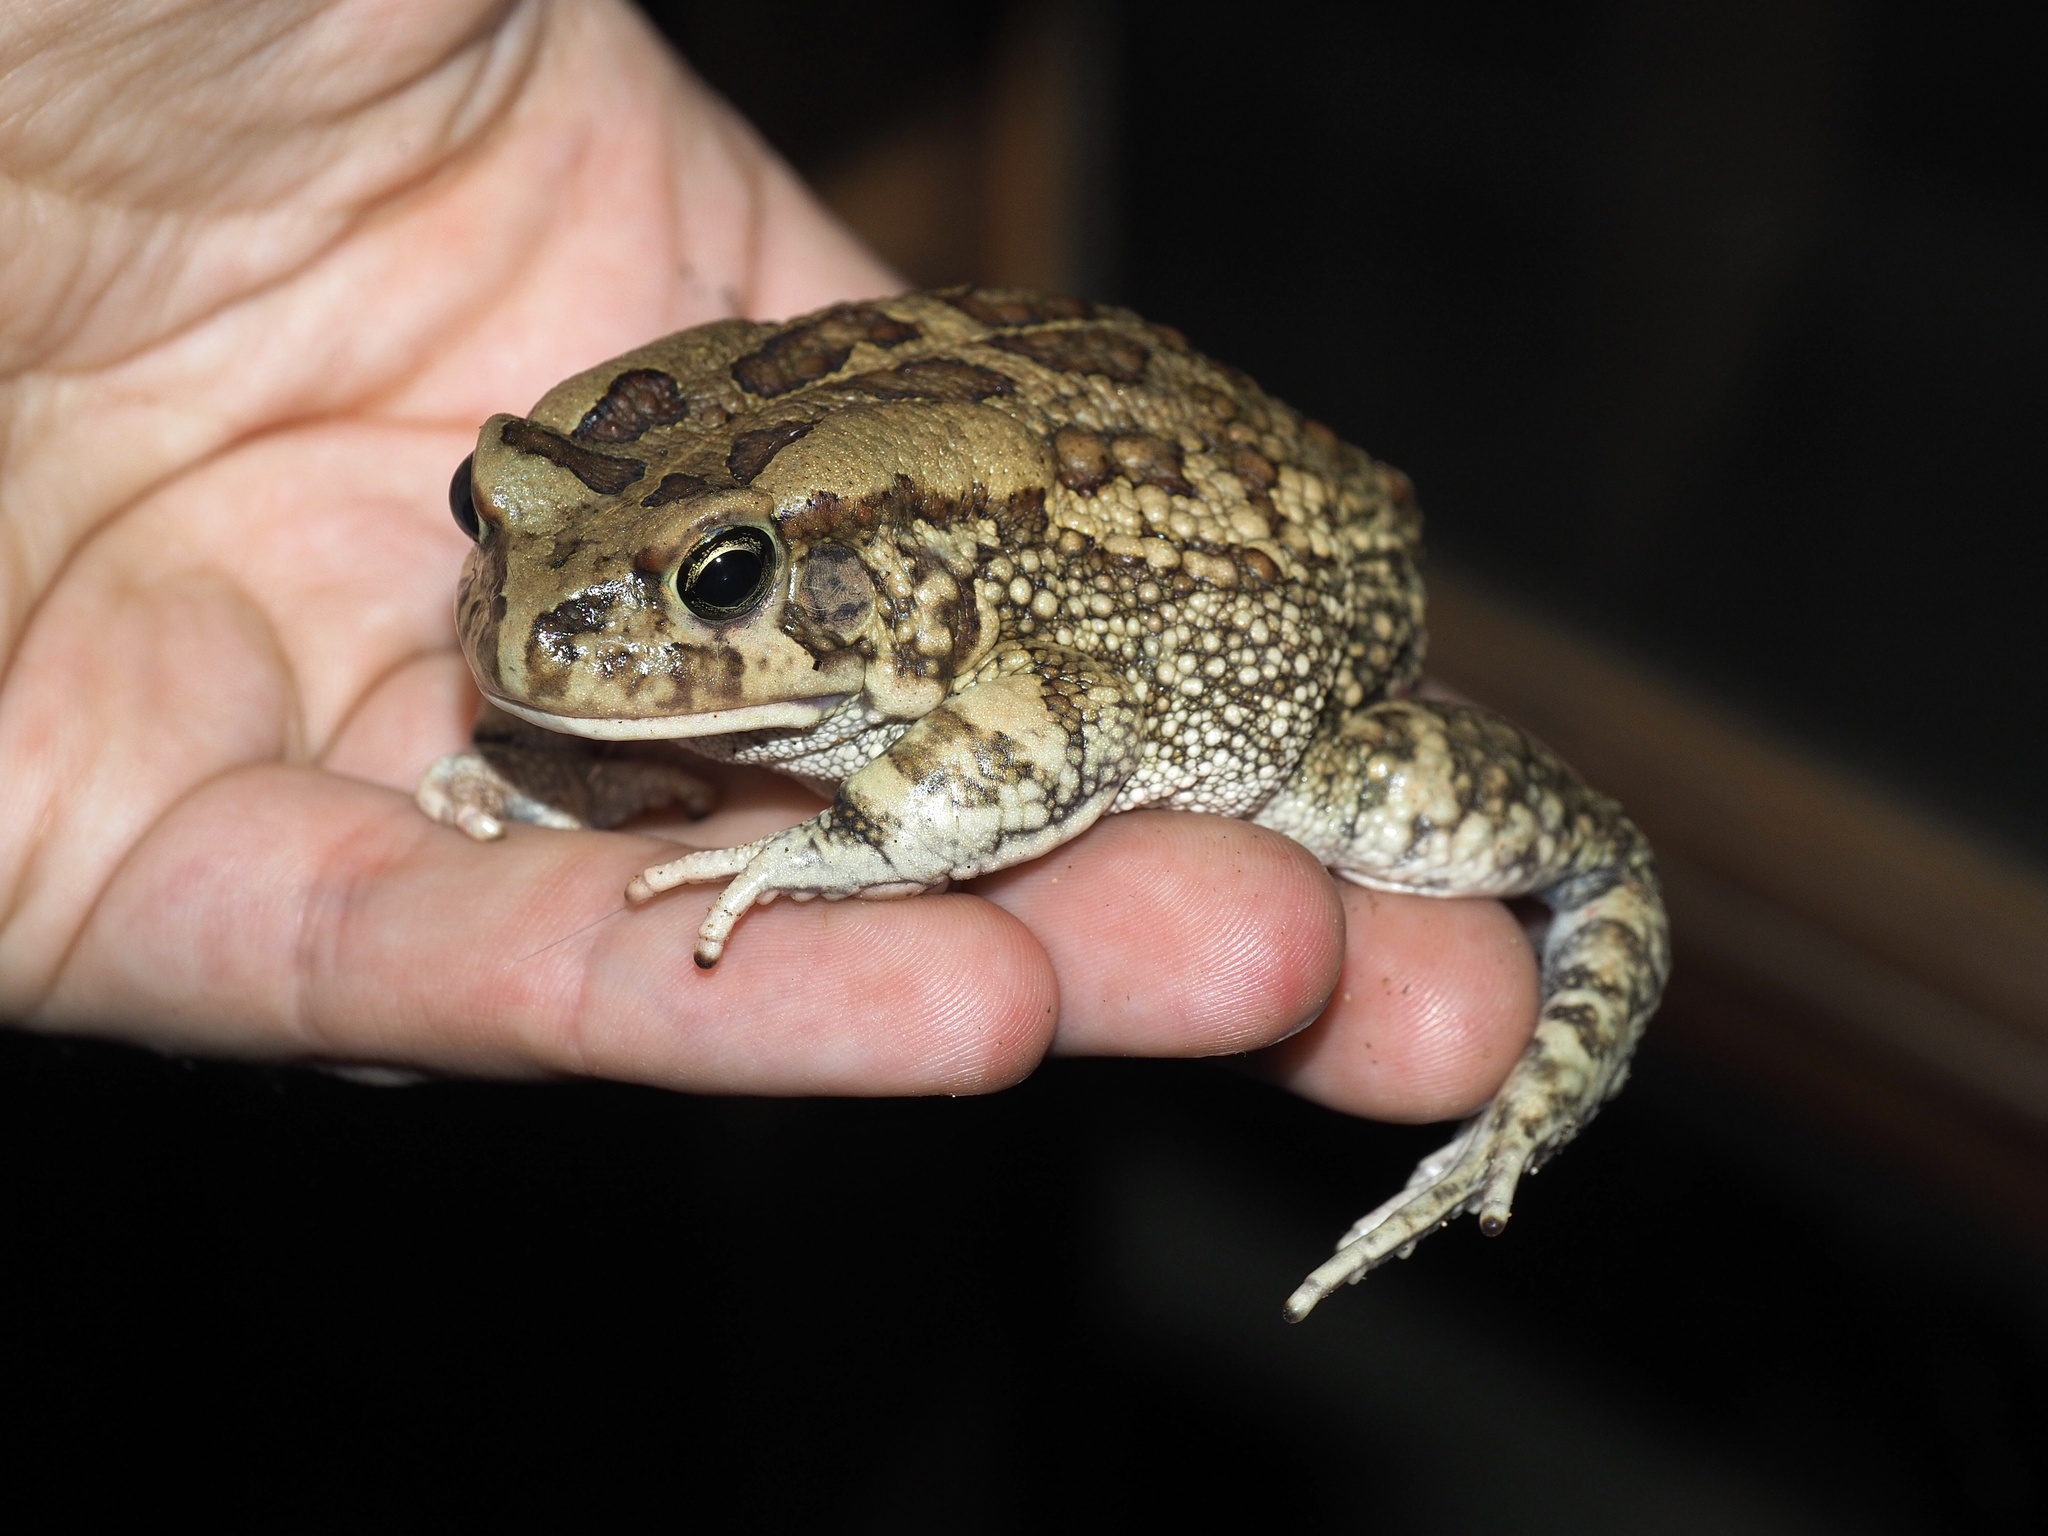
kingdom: Animalia
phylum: Chordata
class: Amphibia
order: Anura
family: Bufonidae
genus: Sclerophrys
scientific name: Sclerophrys garmani
